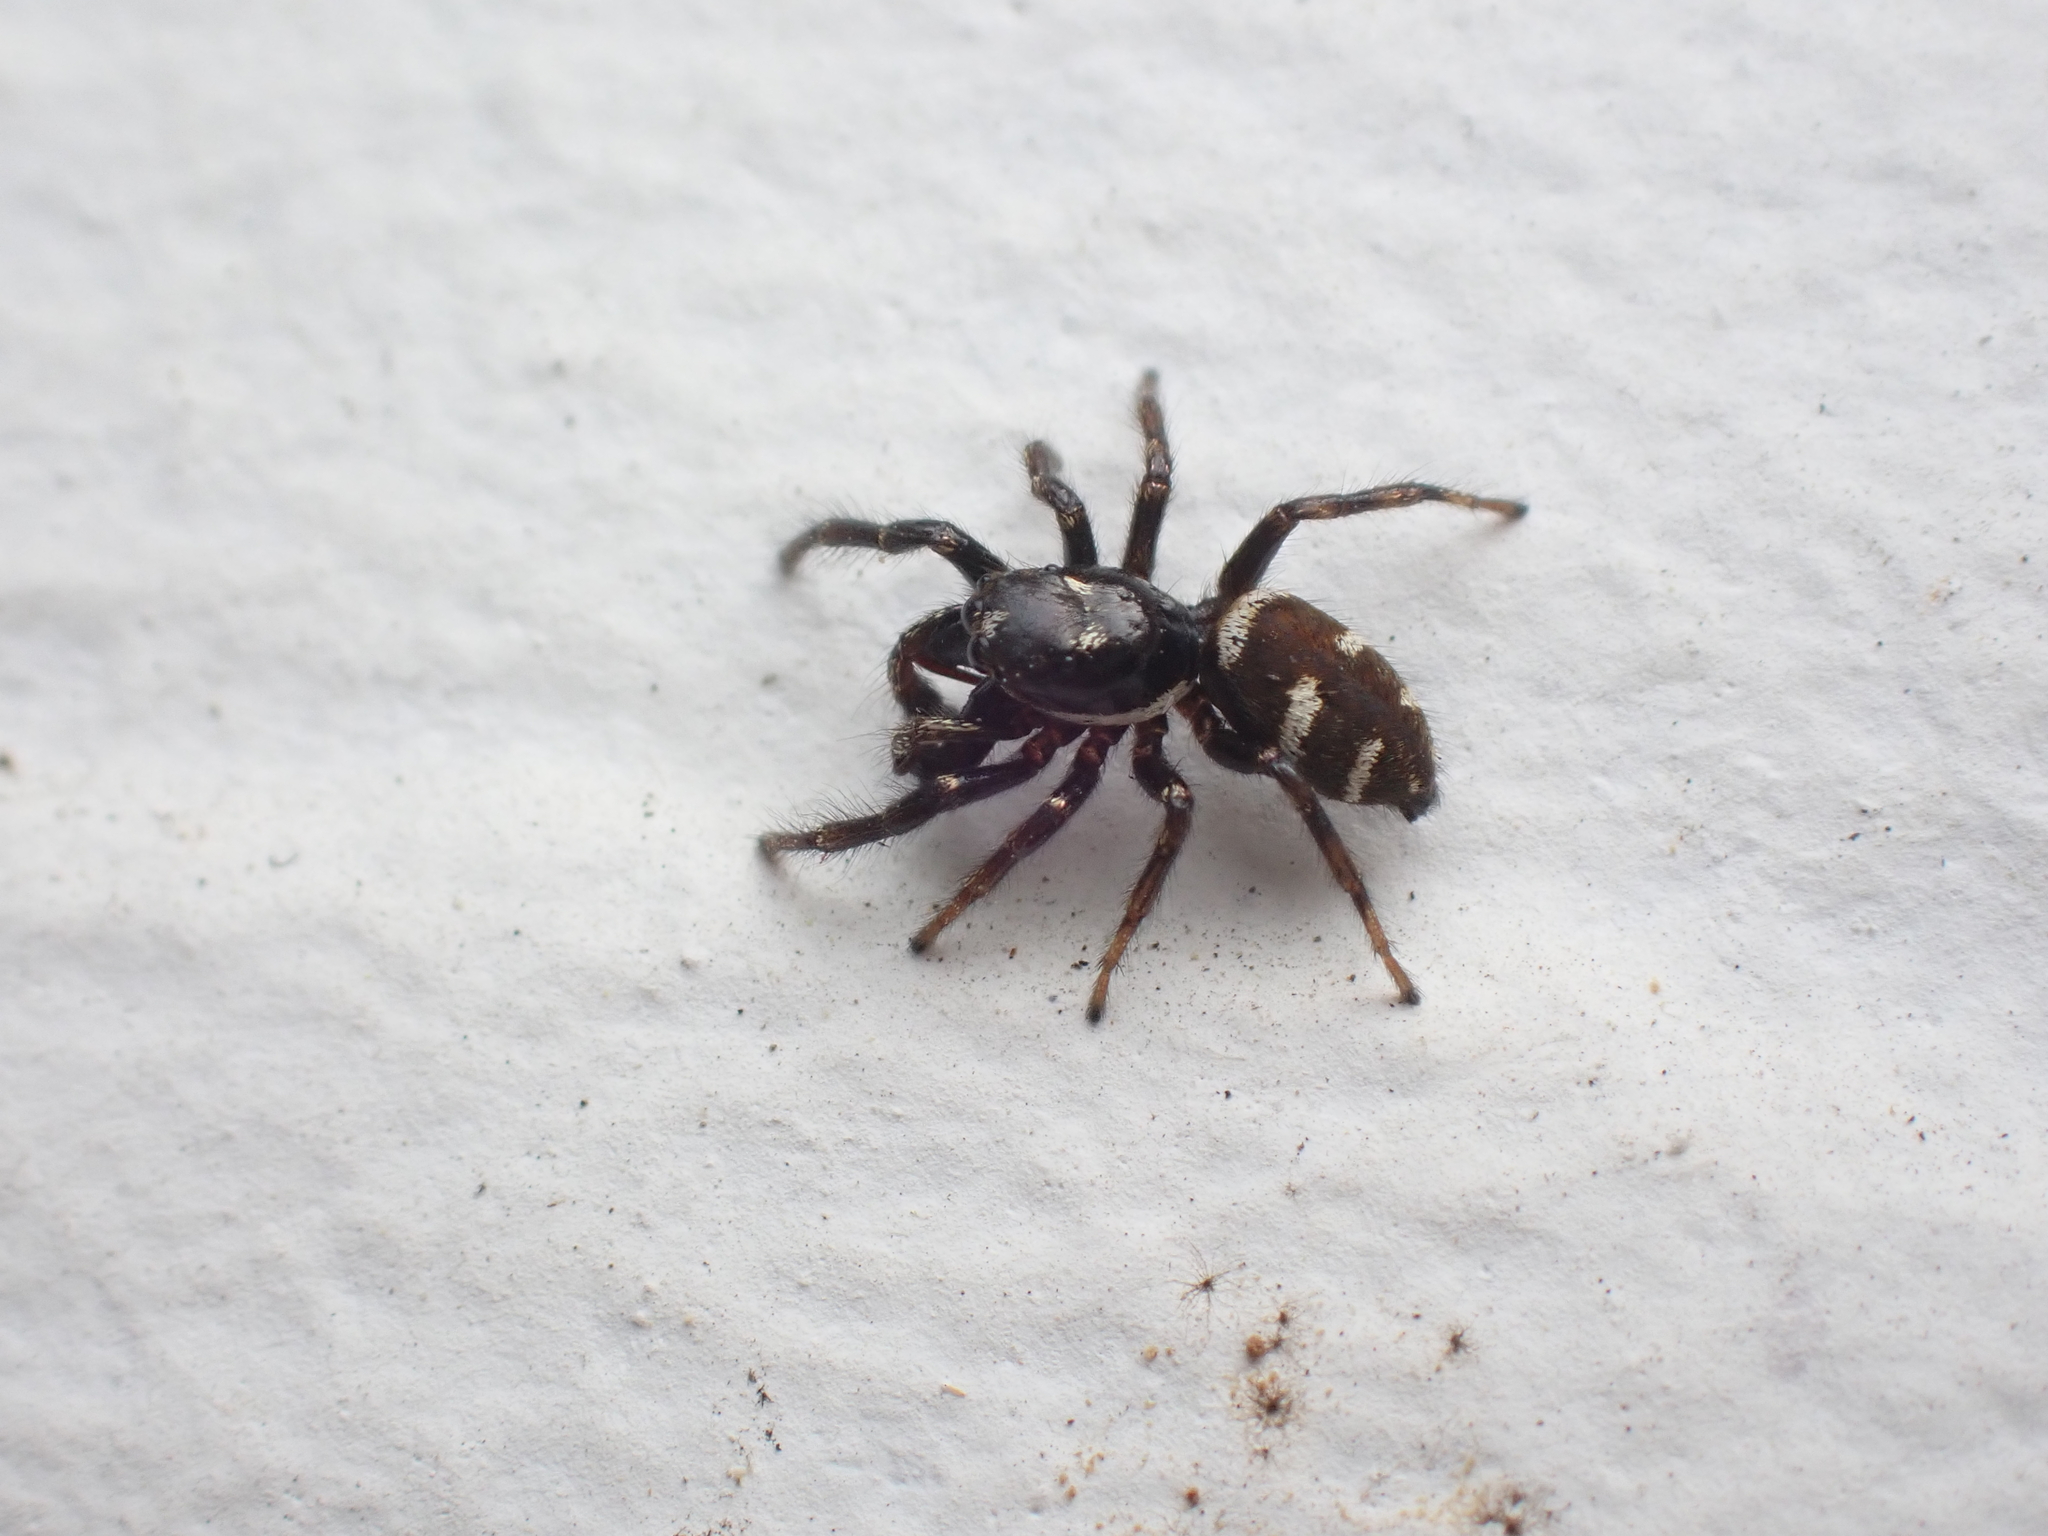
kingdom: Animalia
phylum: Arthropoda
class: Arachnida
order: Araneae
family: Salticidae
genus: Salticus
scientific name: Salticus scenicus
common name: Zebra jumper
